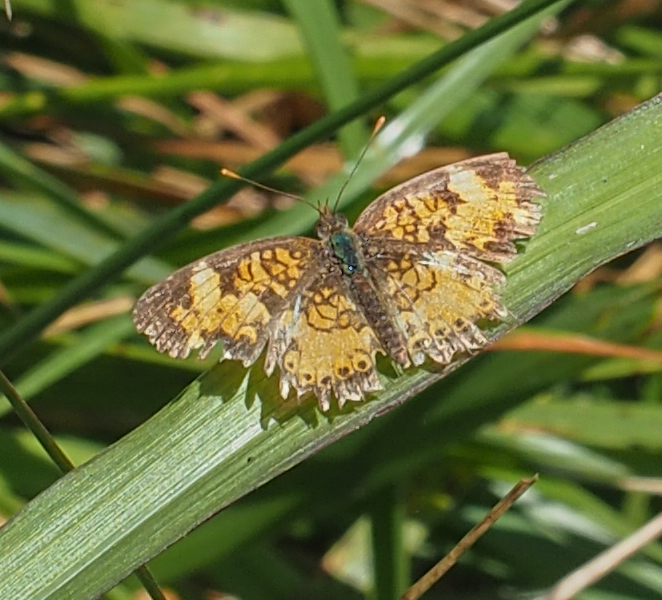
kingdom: Animalia
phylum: Arthropoda
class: Insecta
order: Lepidoptera
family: Nymphalidae
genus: Phyciodes
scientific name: Phyciodes tharos
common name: Pearl crescent
